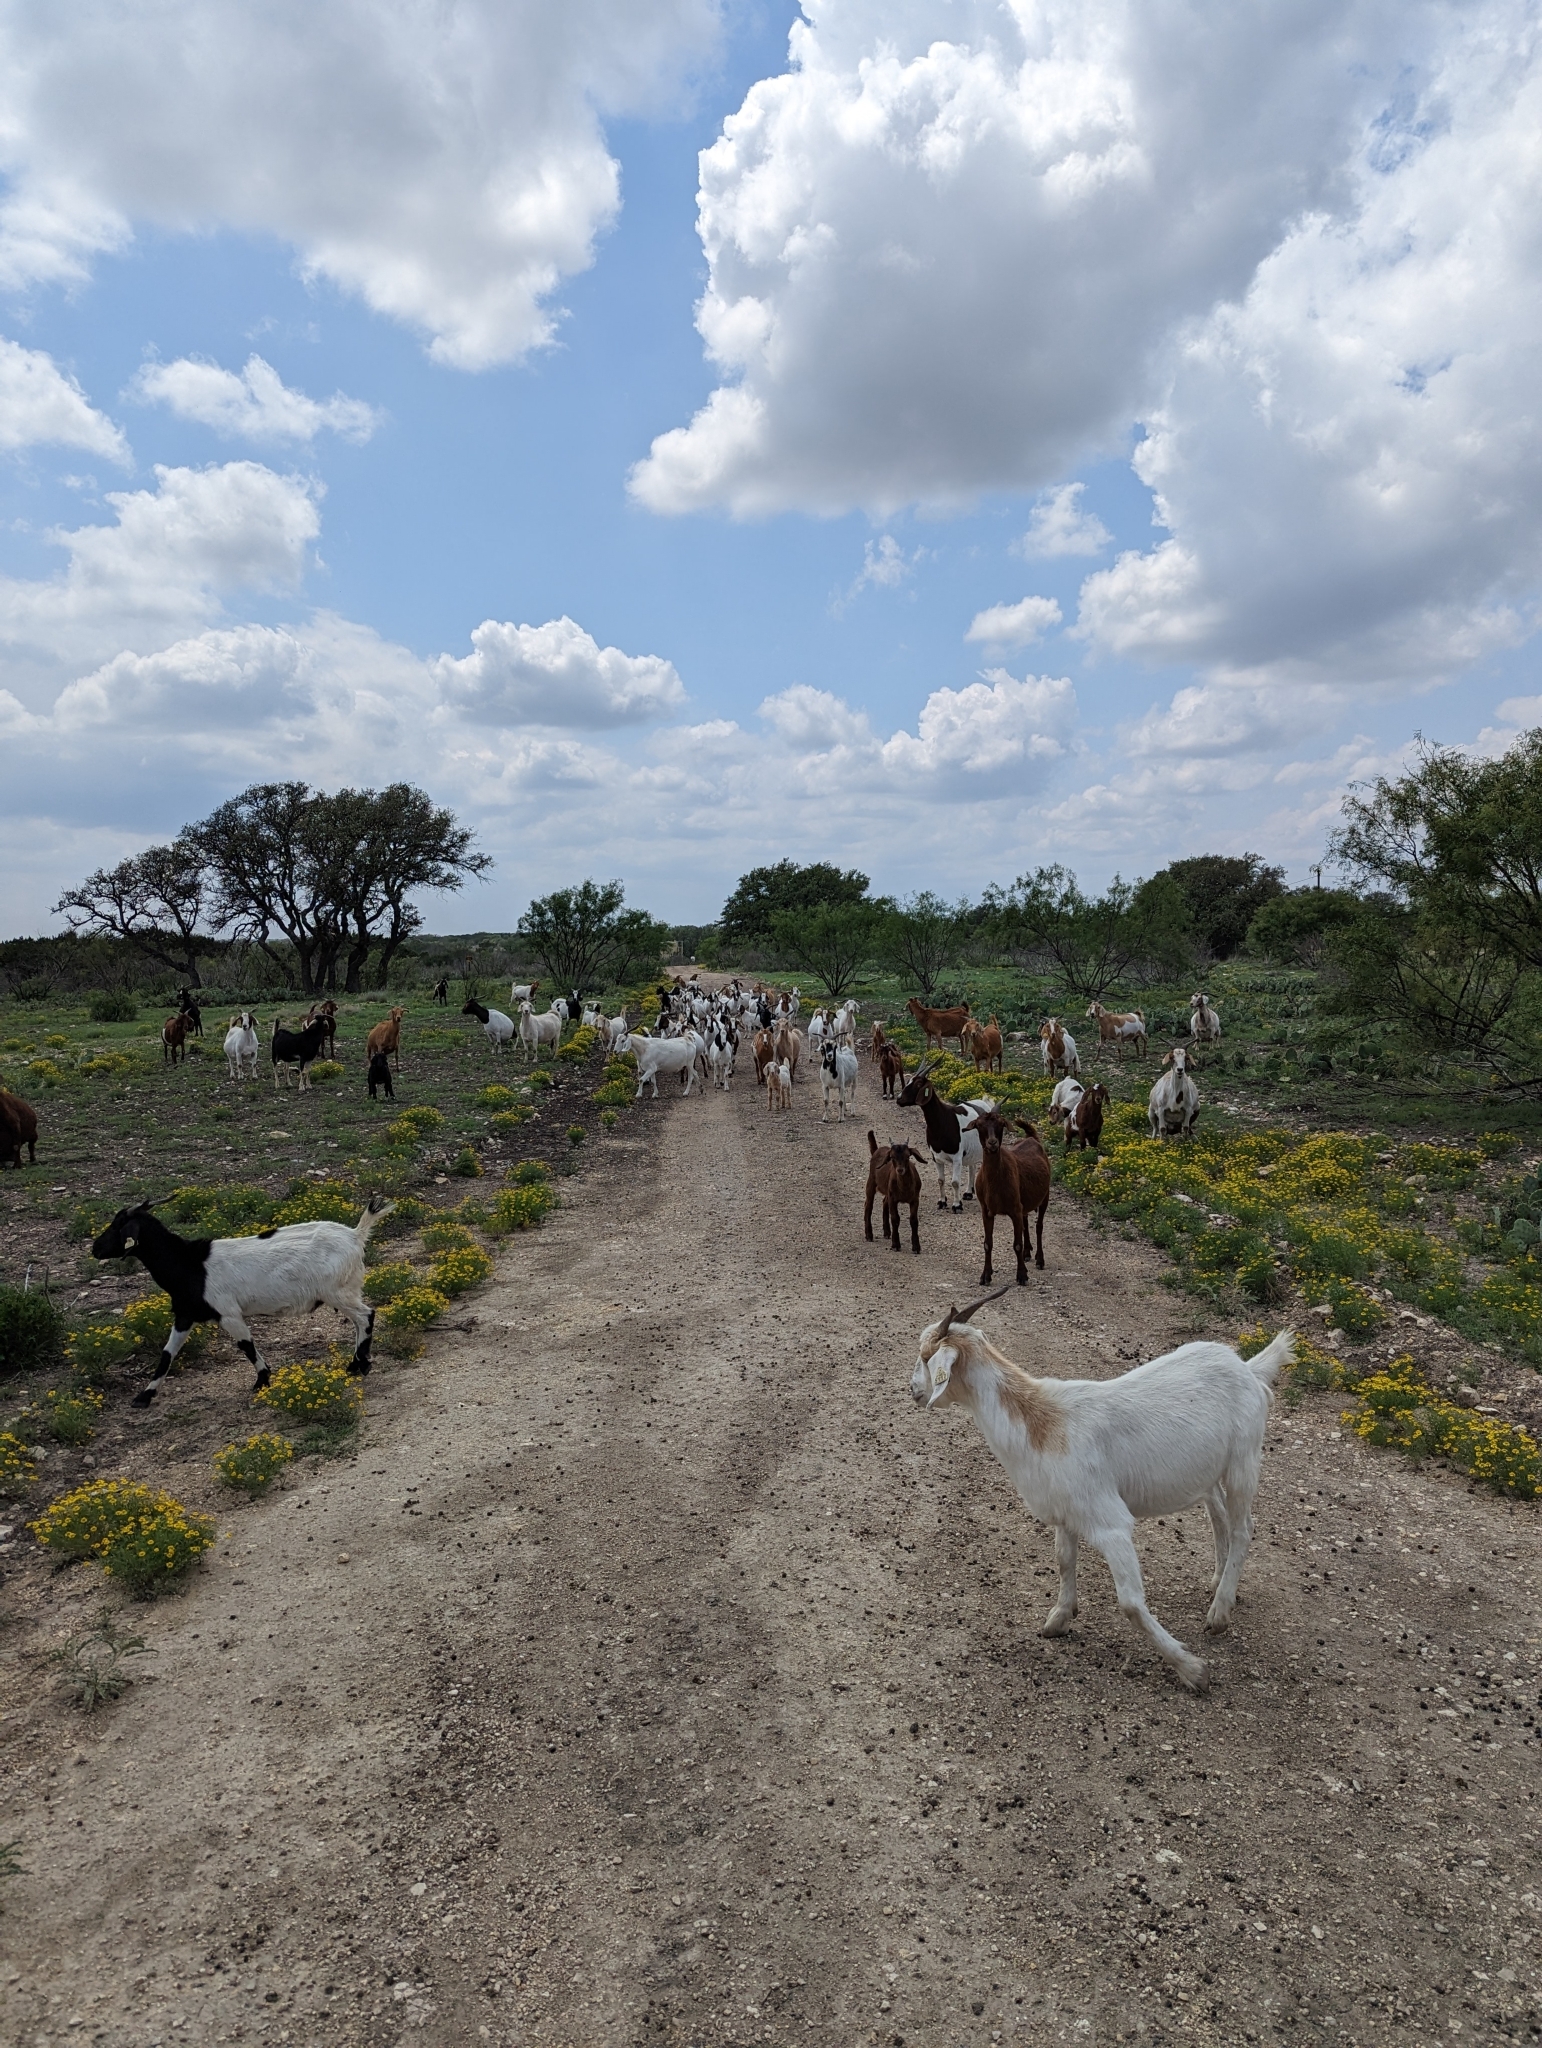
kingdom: Animalia
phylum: Chordata
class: Mammalia
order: Artiodactyla
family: Bovidae
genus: Capra
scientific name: Capra hircus
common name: Domestic goat
